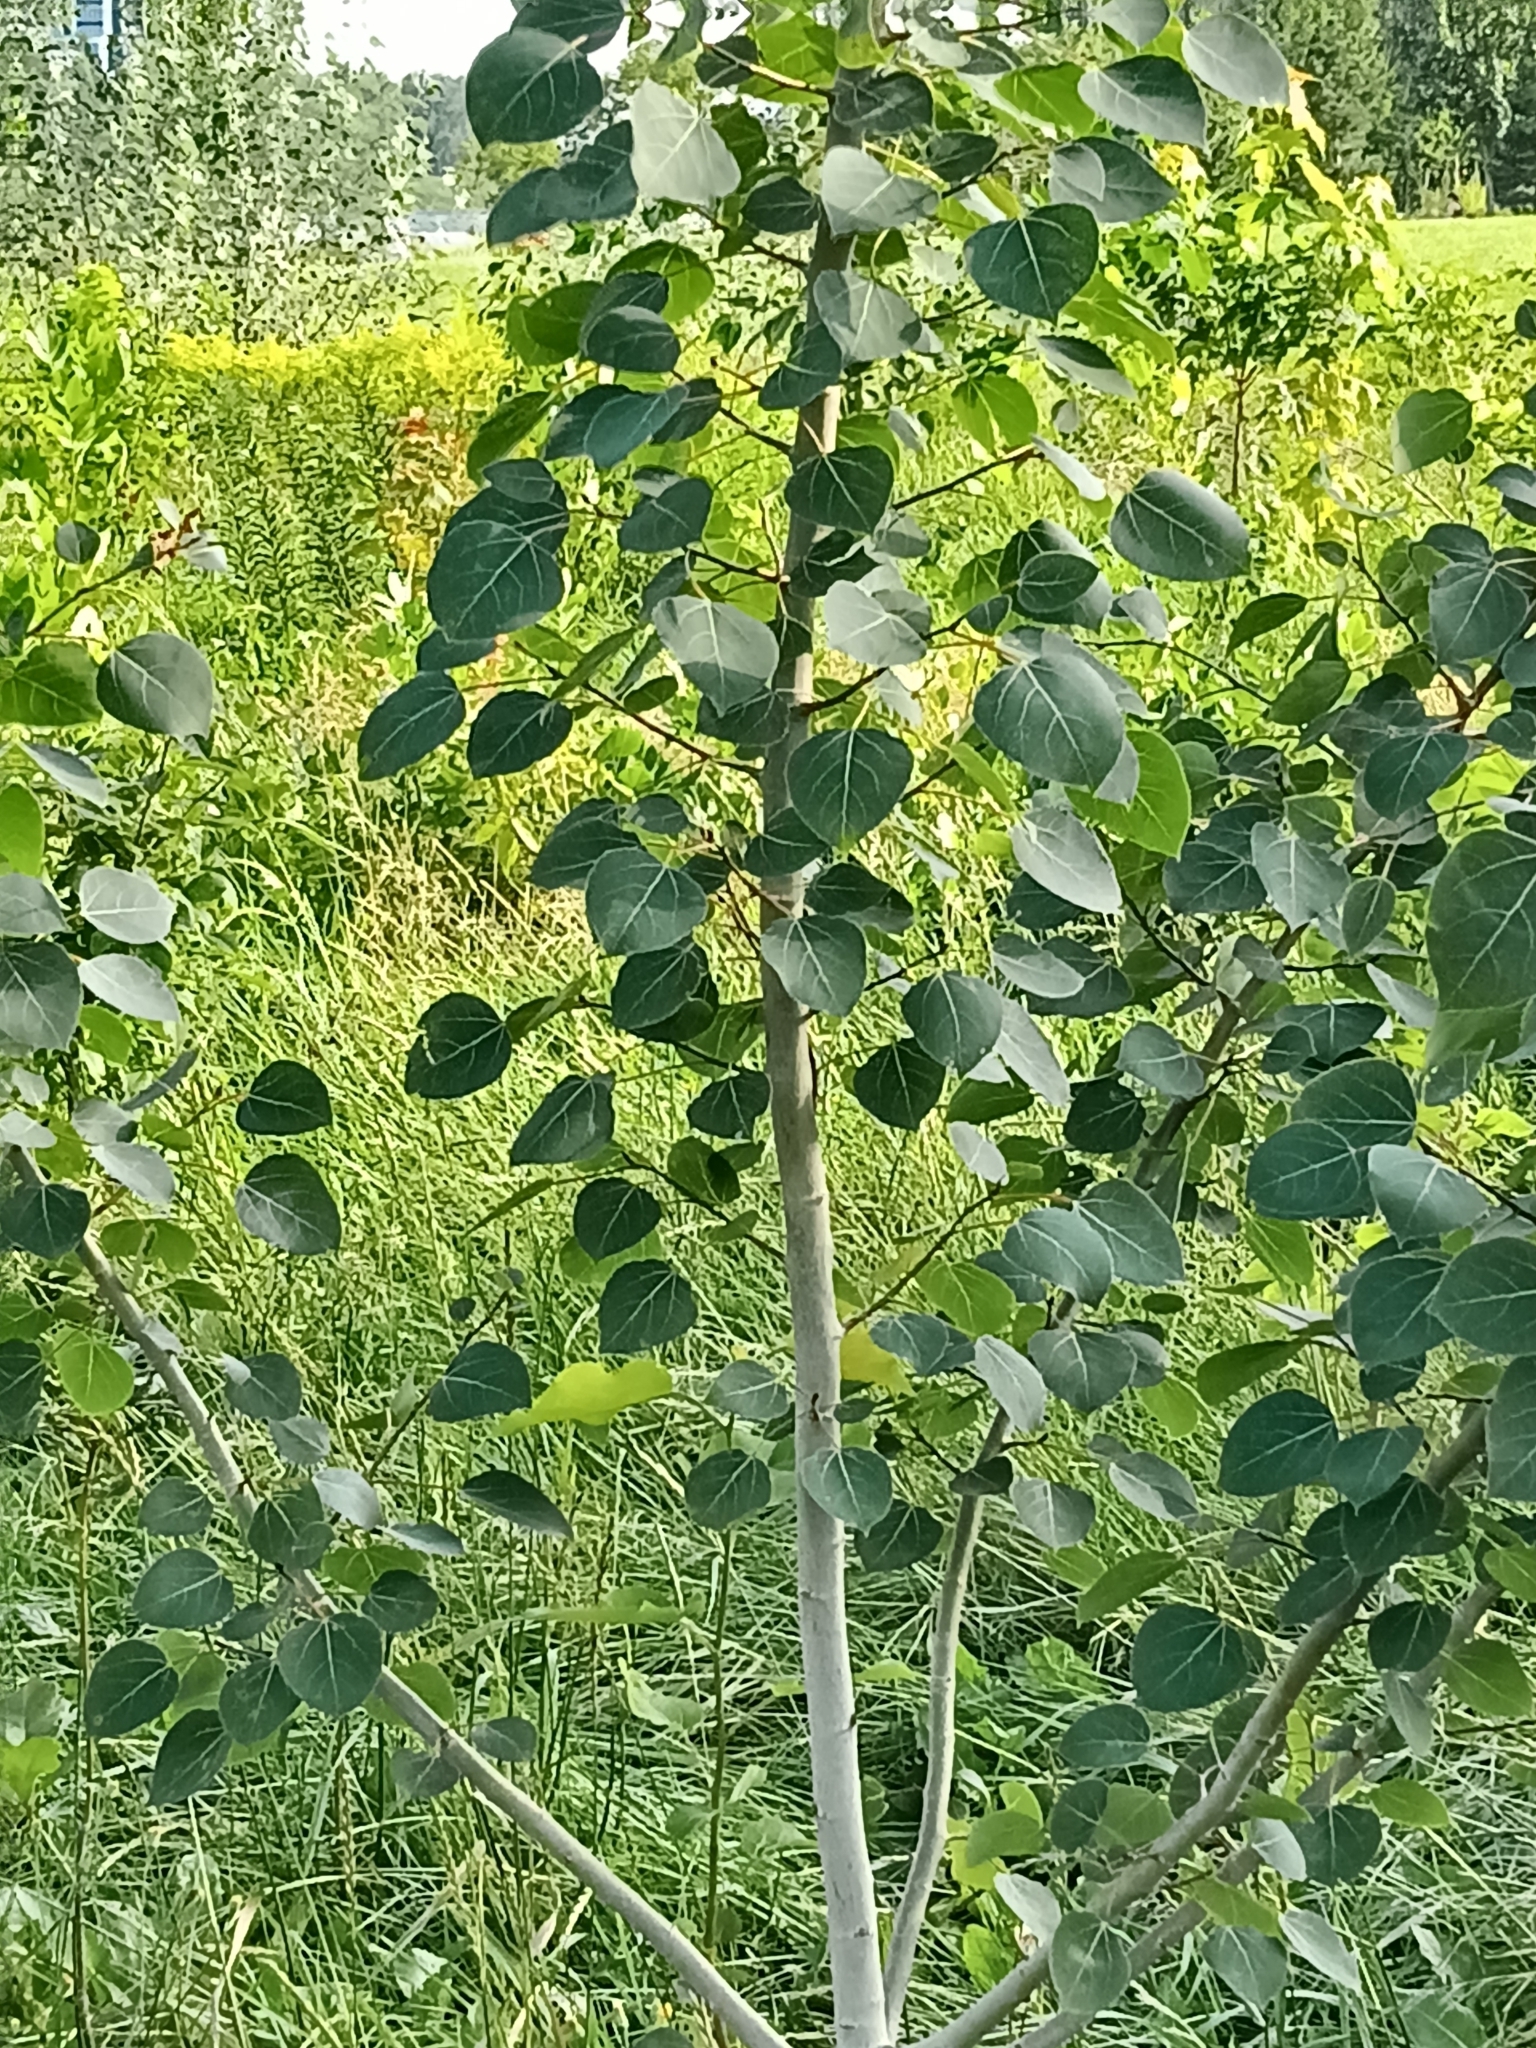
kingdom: Plantae
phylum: Tracheophyta
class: Magnoliopsida
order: Malpighiales
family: Salicaceae
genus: Populus
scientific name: Populus tremuloides
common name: Quaking aspen
